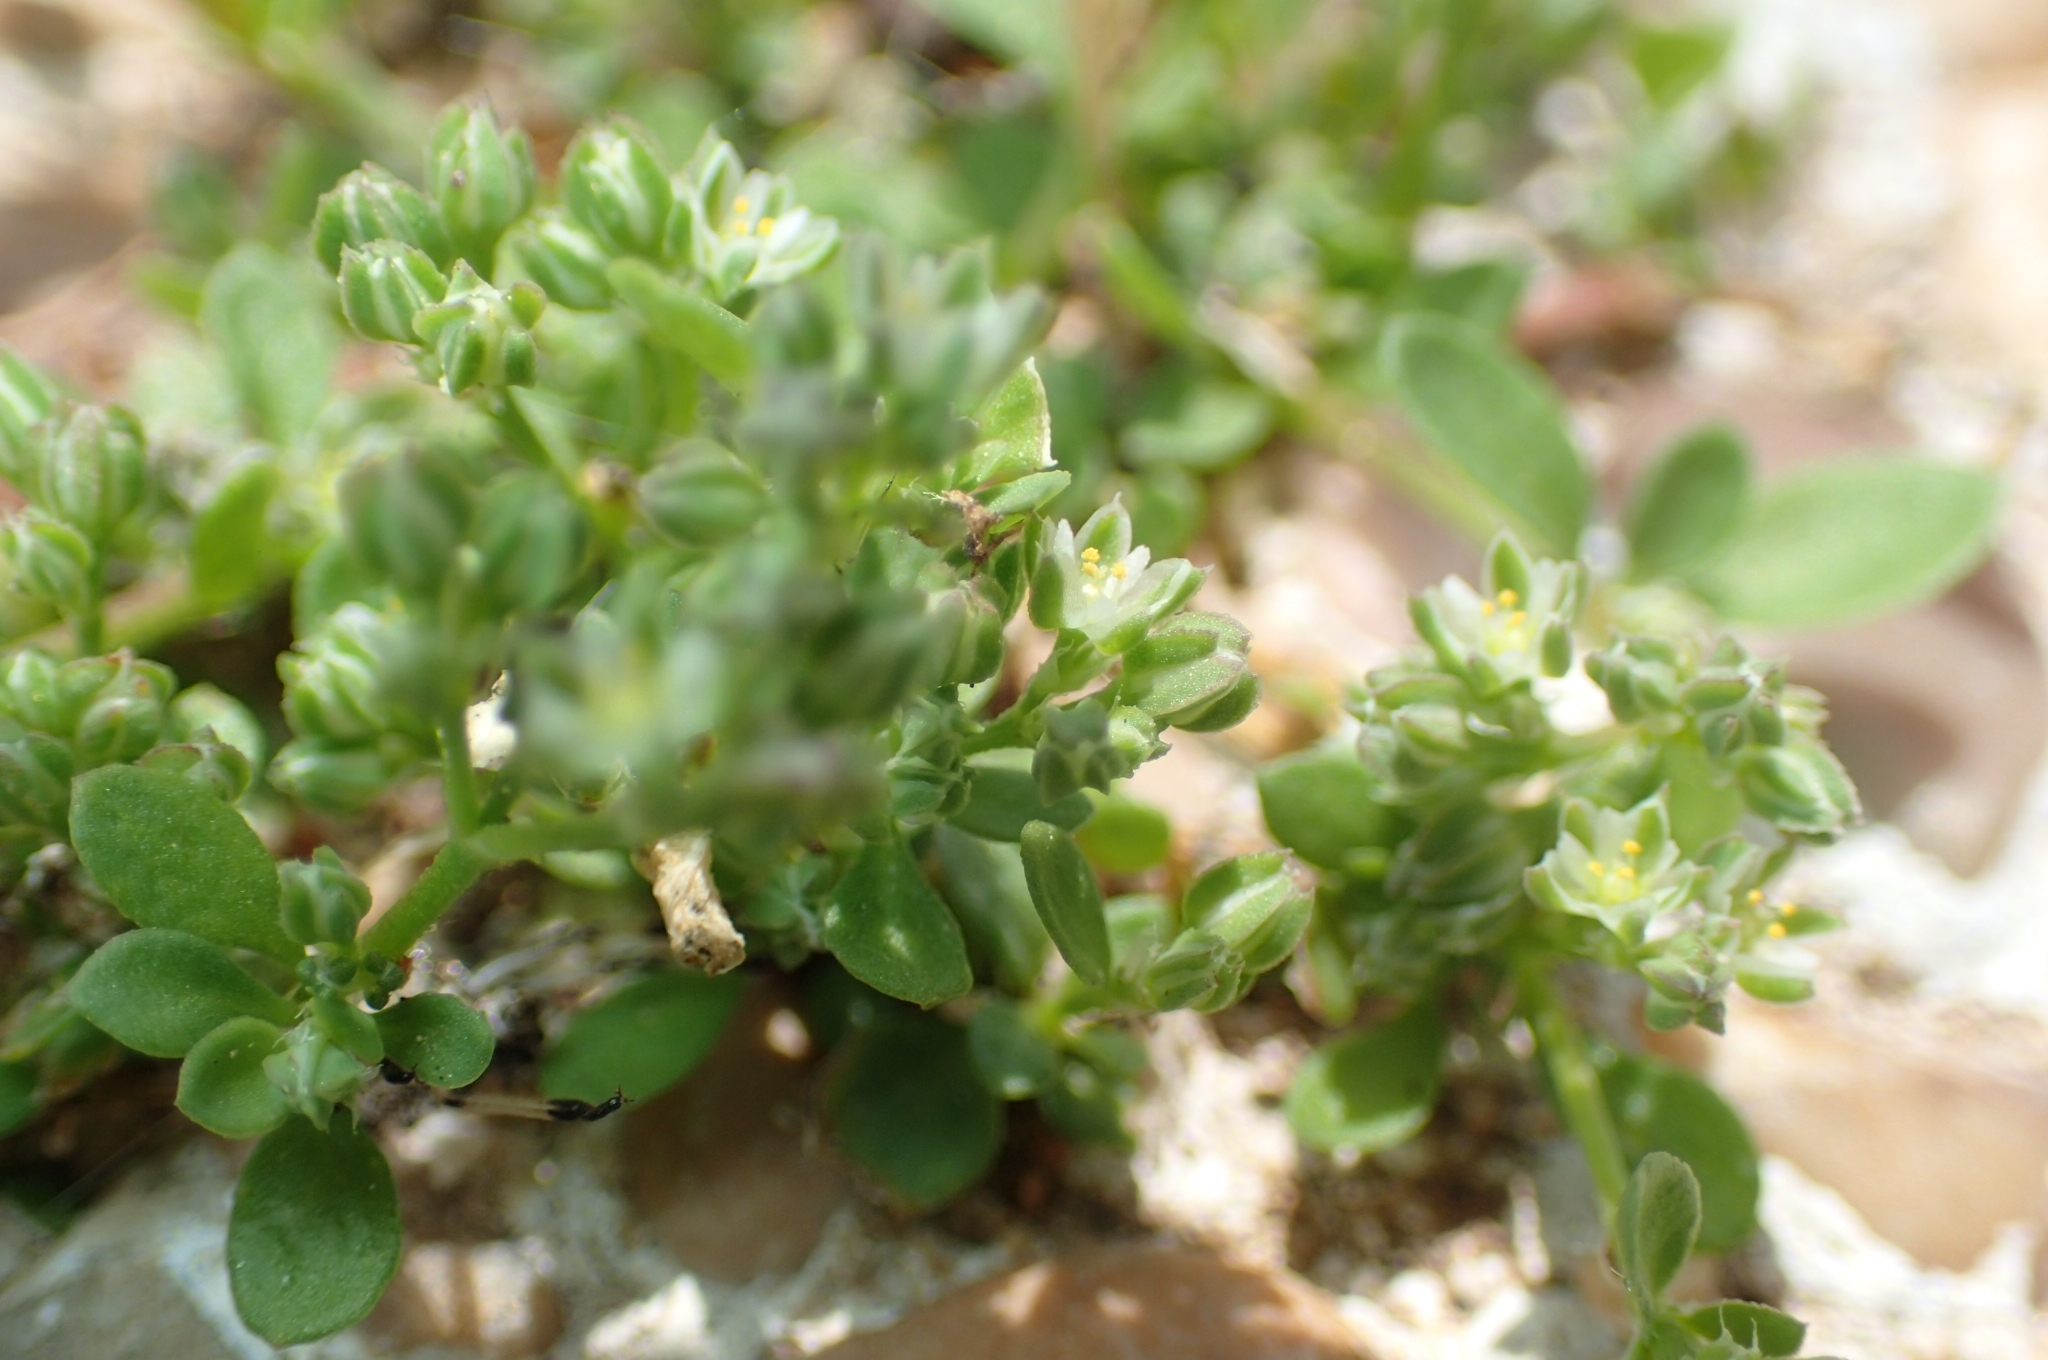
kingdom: Plantae
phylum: Tracheophyta
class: Magnoliopsida
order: Caryophyllales
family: Caryophyllaceae
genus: Polycarpon
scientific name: Polycarpon tetraphyllum
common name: Four-leaved all-seed
